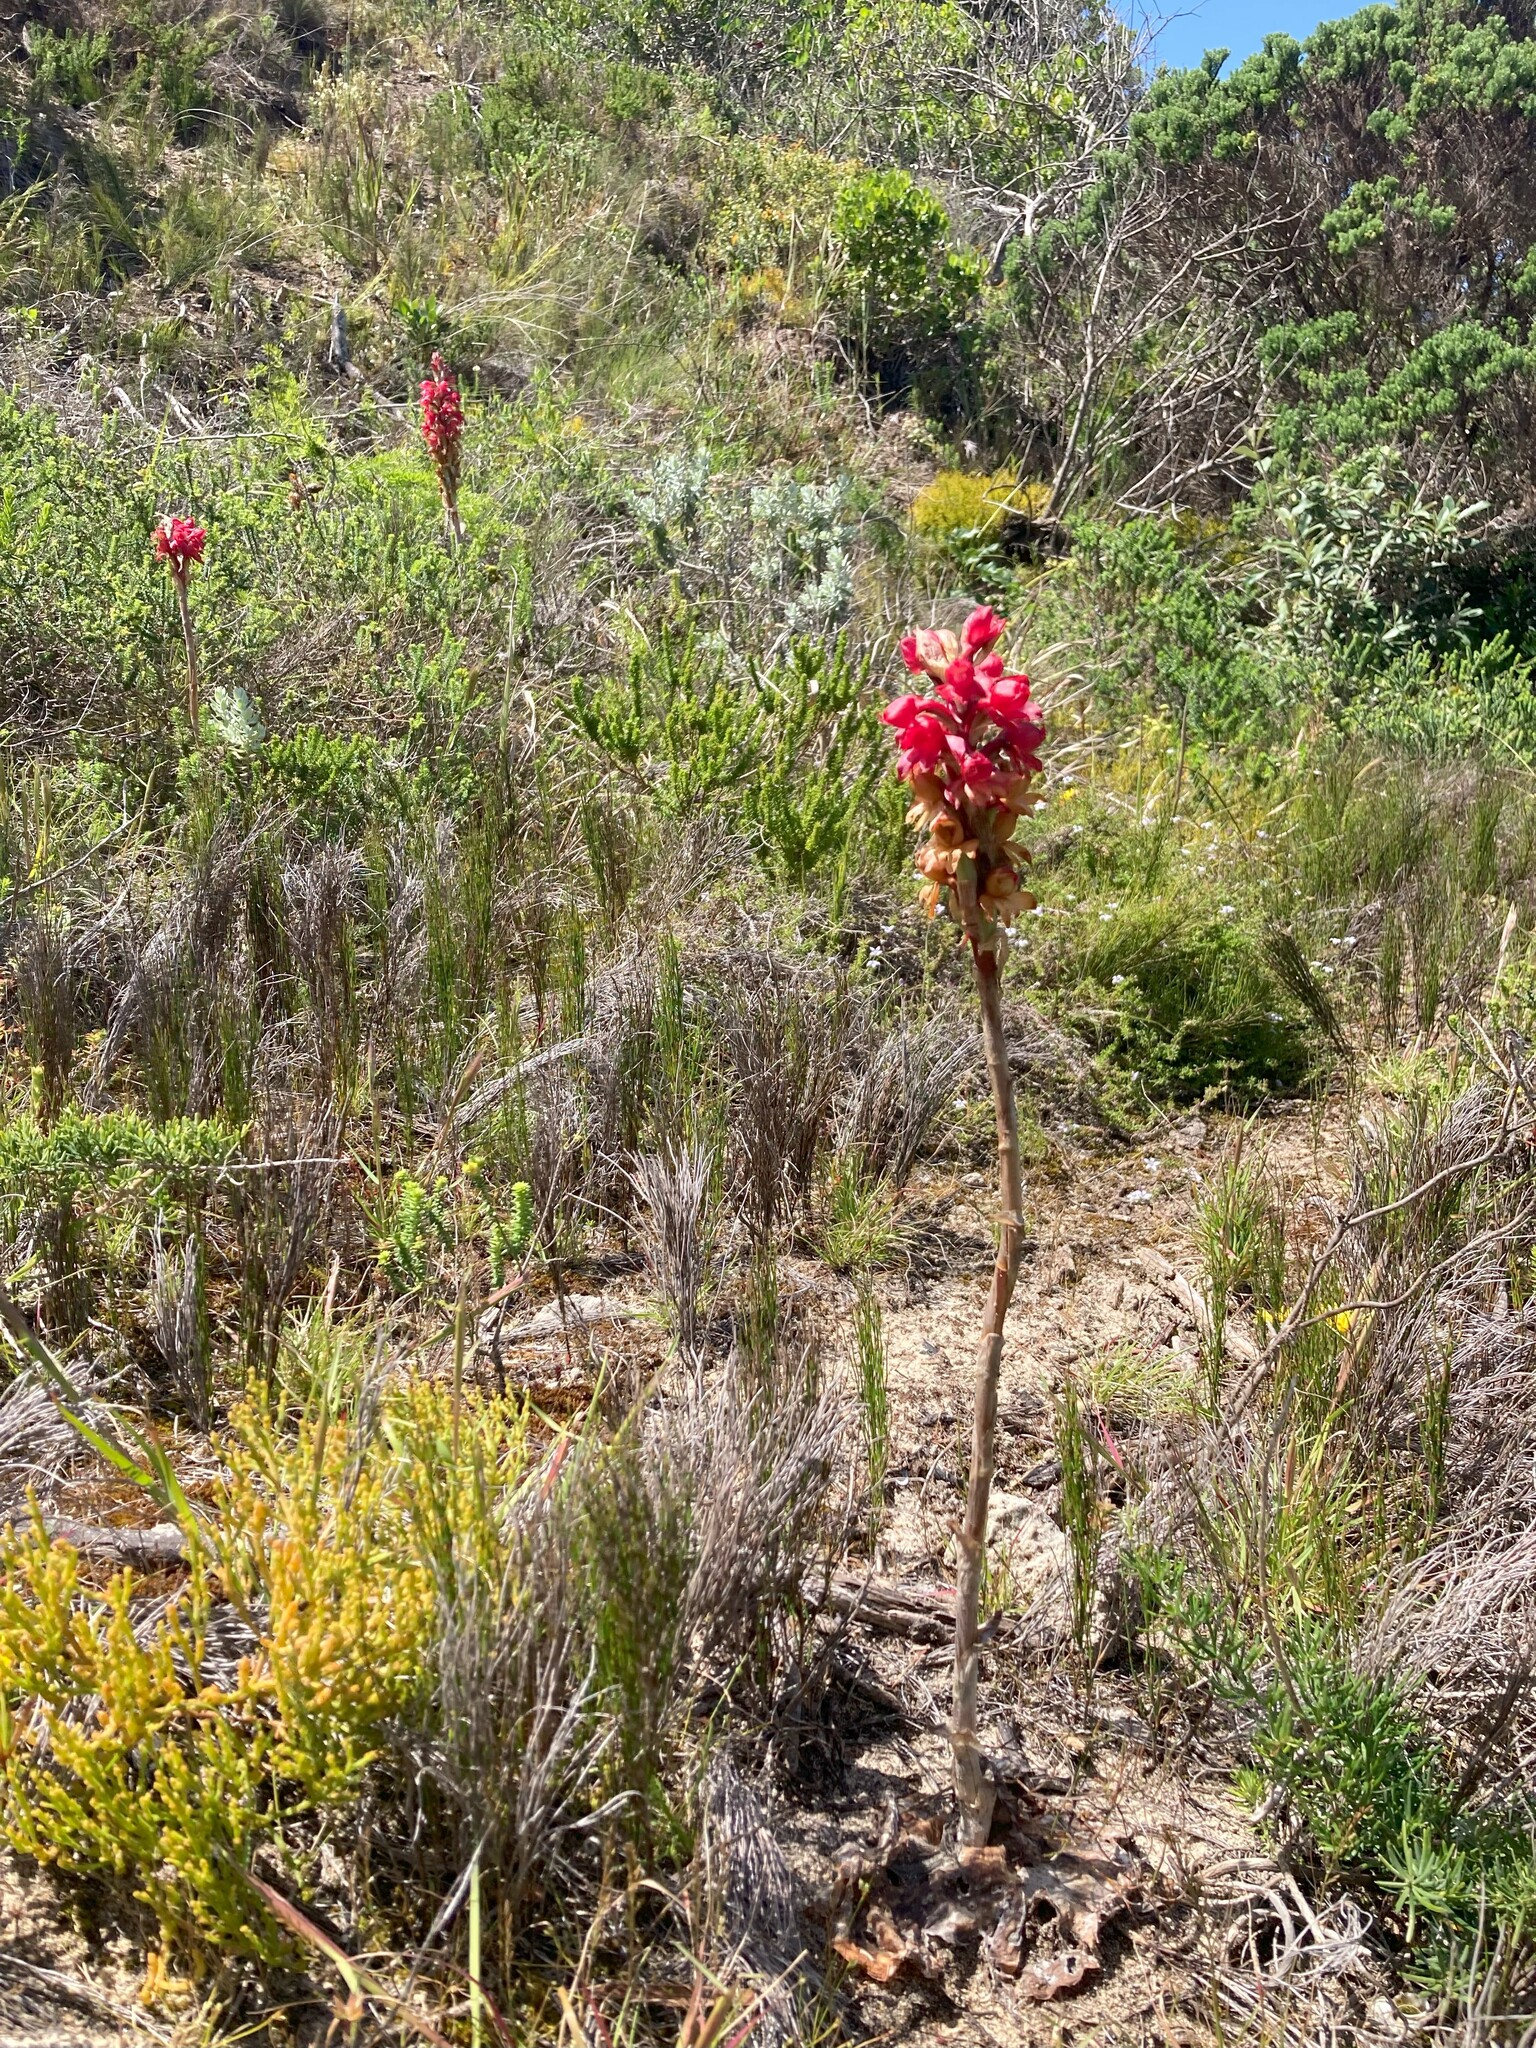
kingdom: Plantae
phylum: Tracheophyta
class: Liliopsida
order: Asparagales
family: Orchidaceae
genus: Satyrium
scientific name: Satyrium princeps
